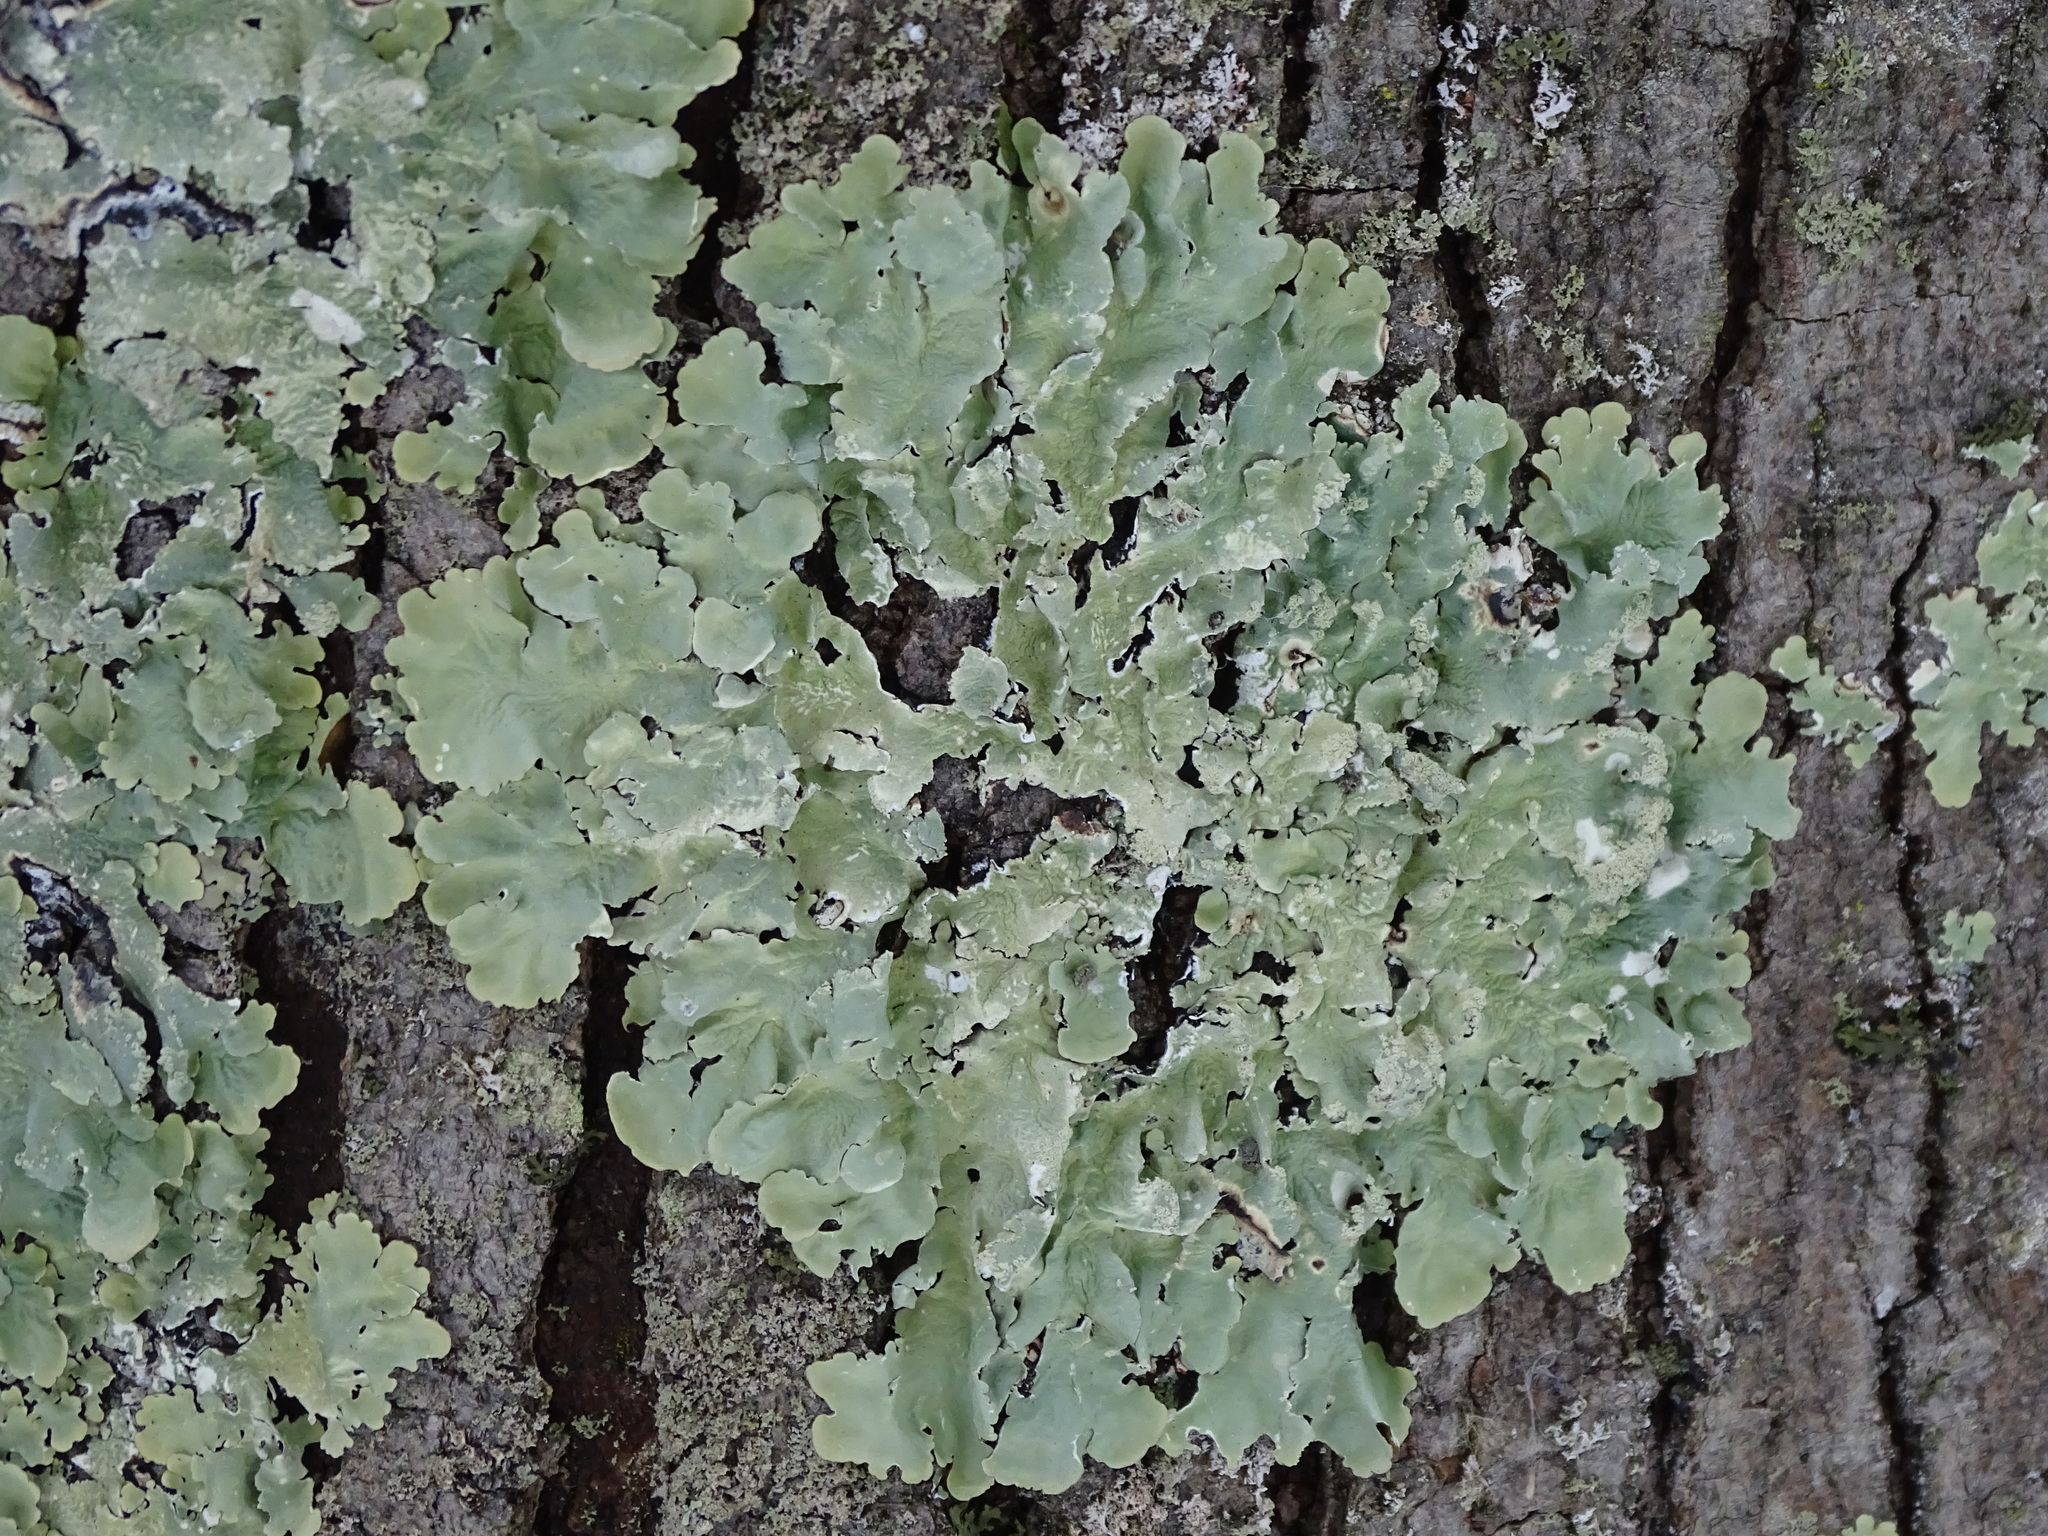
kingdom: Fungi
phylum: Ascomycota
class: Lecanoromycetes
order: Lecanorales
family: Parmeliaceae
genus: Flavoparmelia
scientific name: Flavoparmelia caperata
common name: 40-mile per hour lichen
